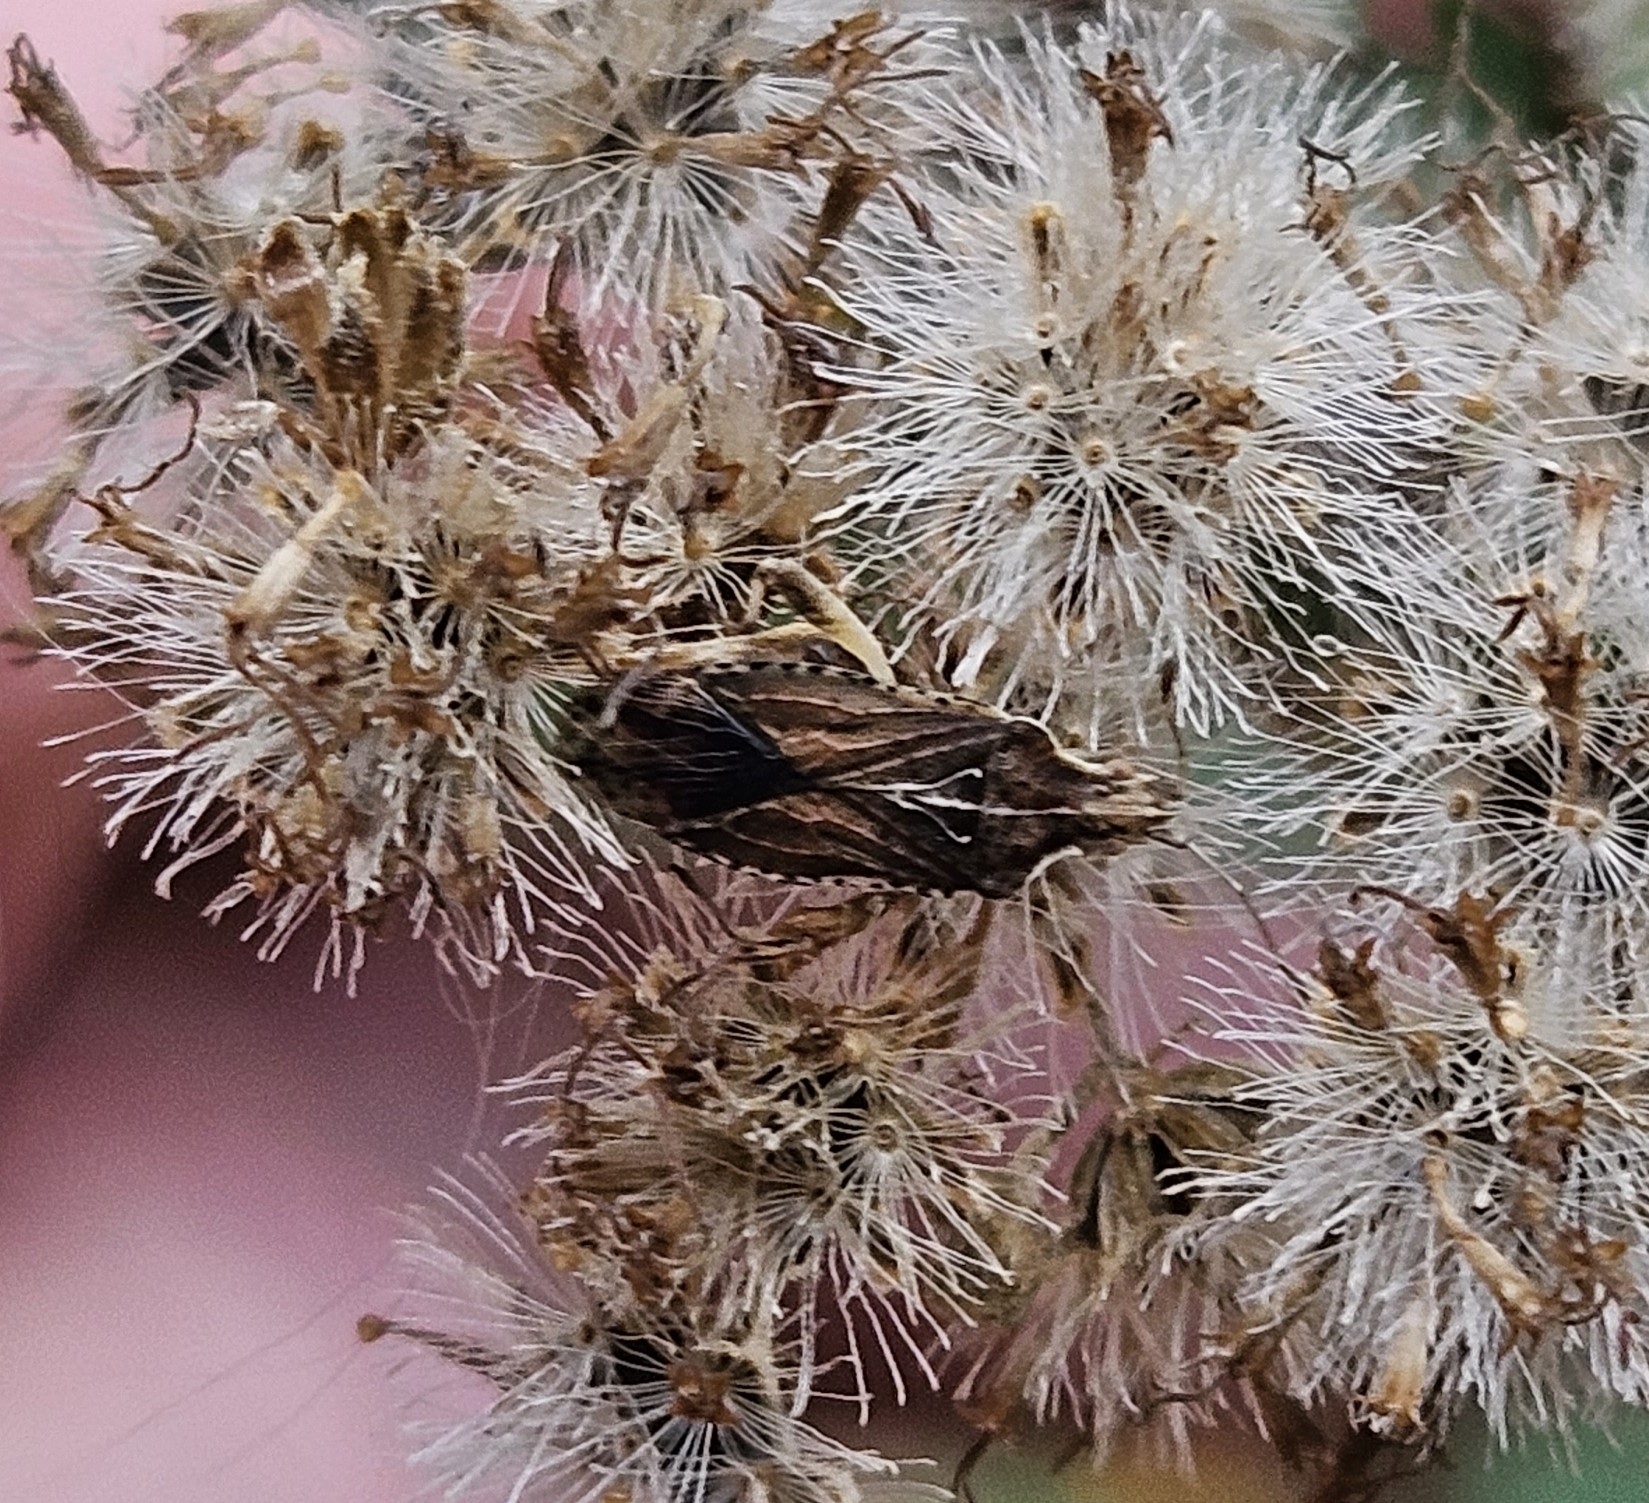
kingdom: Animalia
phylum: Arthropoda
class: Insecta
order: Hemiptera
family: Rhopalidae
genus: Harmostes
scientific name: Harmostes fraterculus
